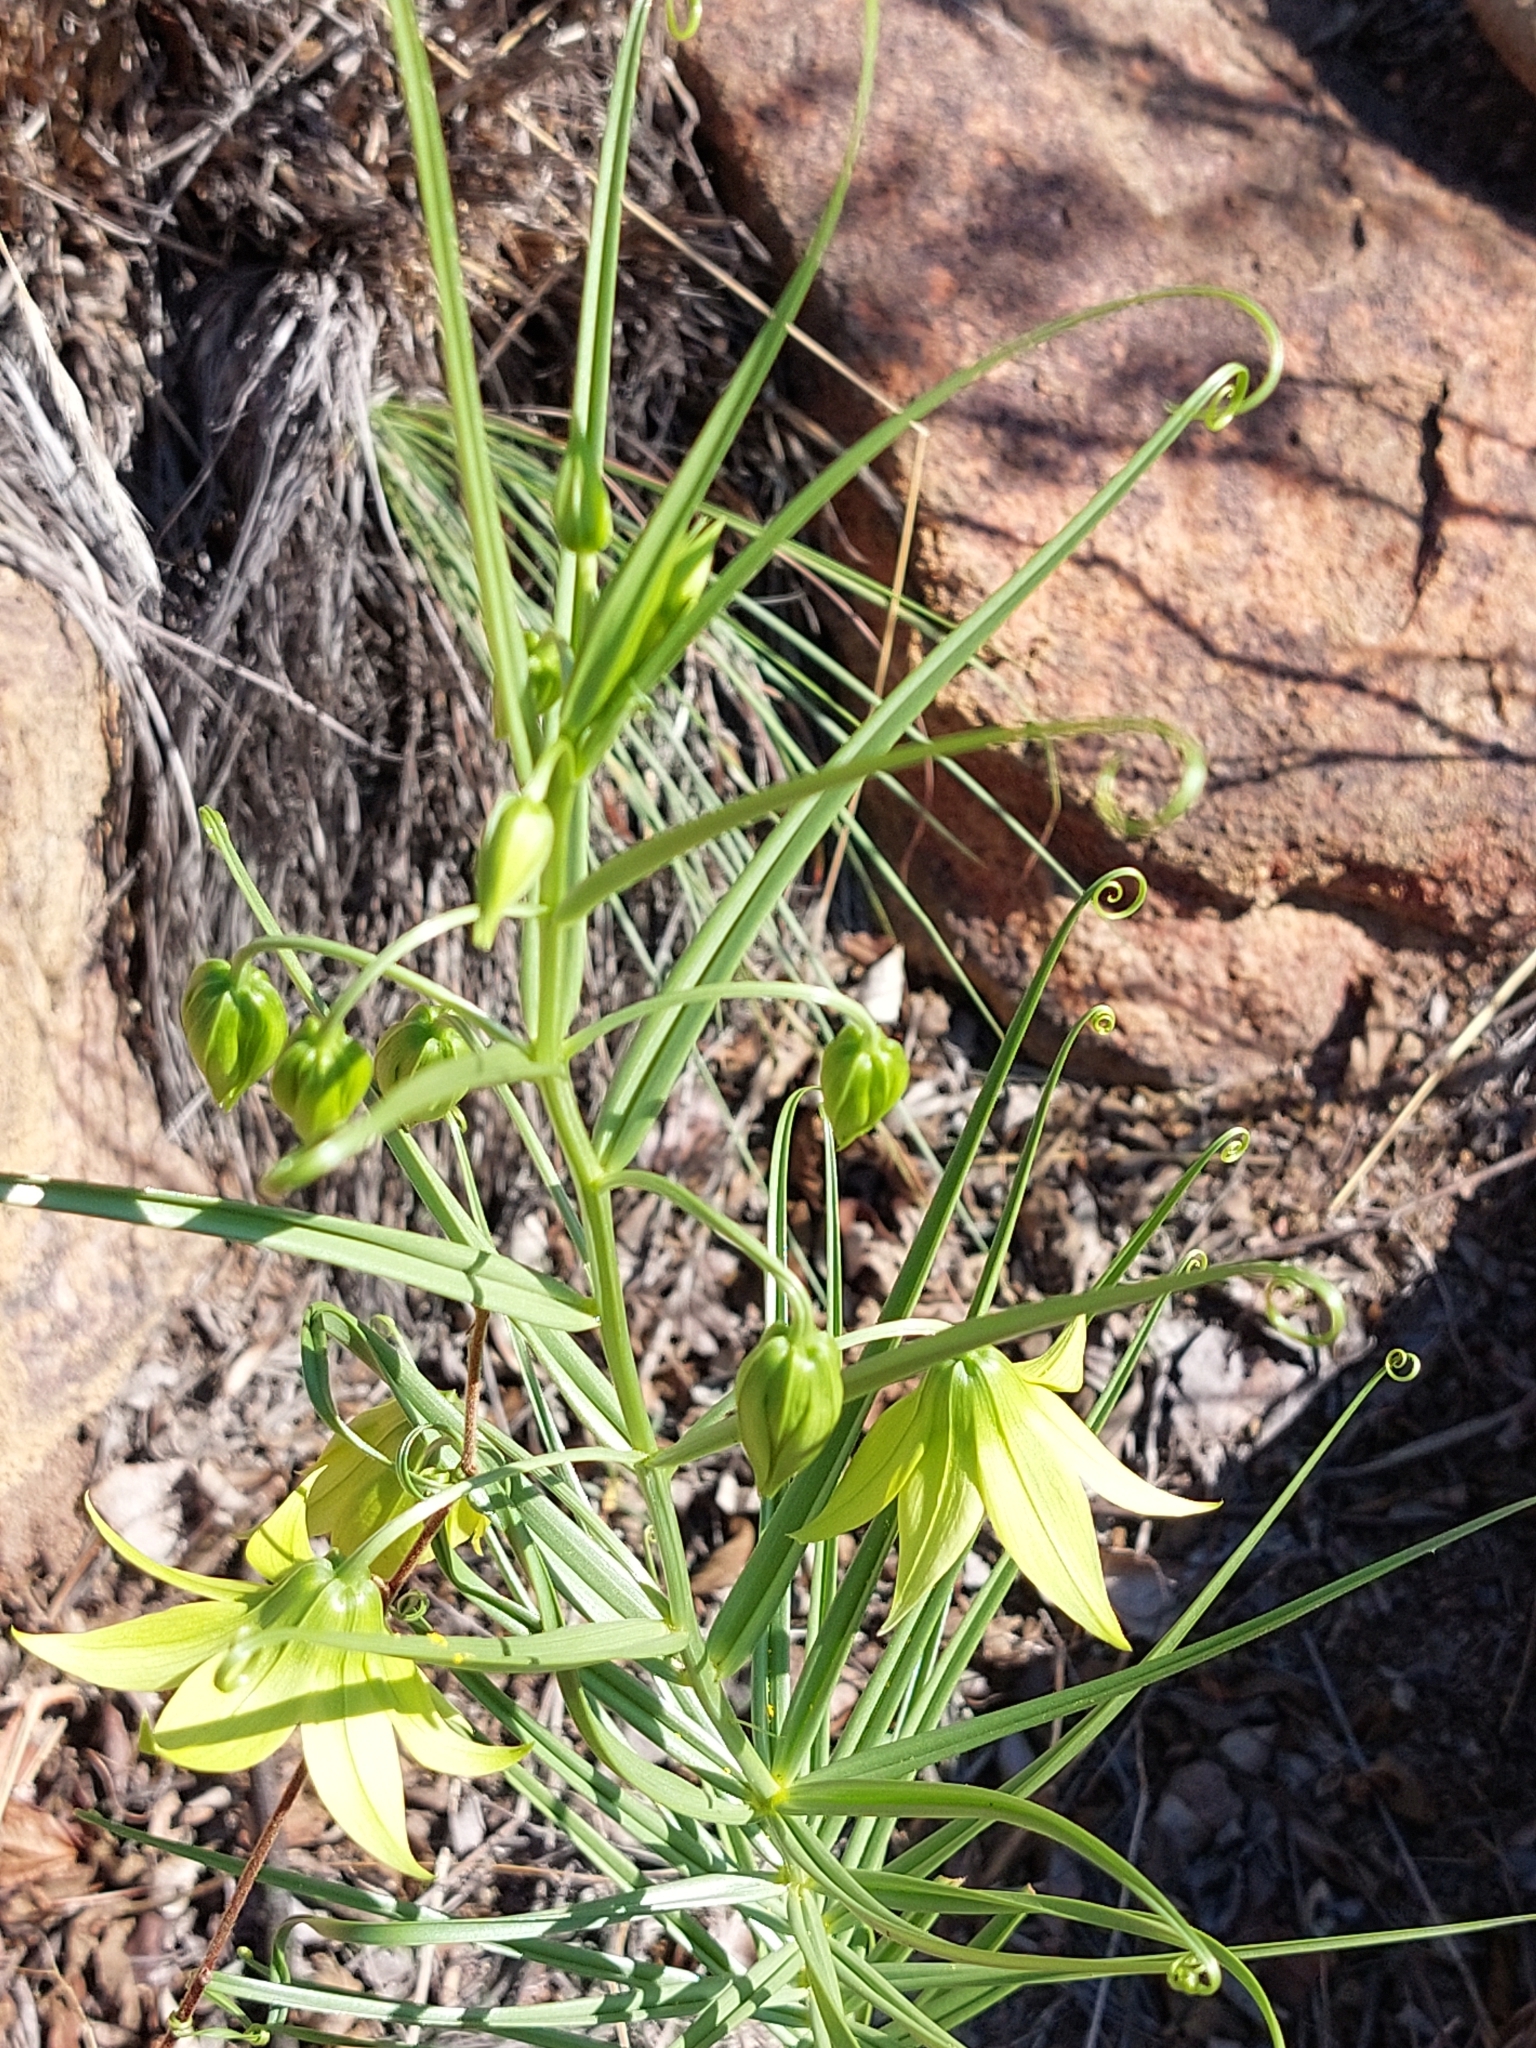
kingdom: Plantae
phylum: Tracheophyta
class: Liliopsida
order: Liliales
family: Colchicaceae
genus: Gloriosa
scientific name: Gloriosa rigidifolia
